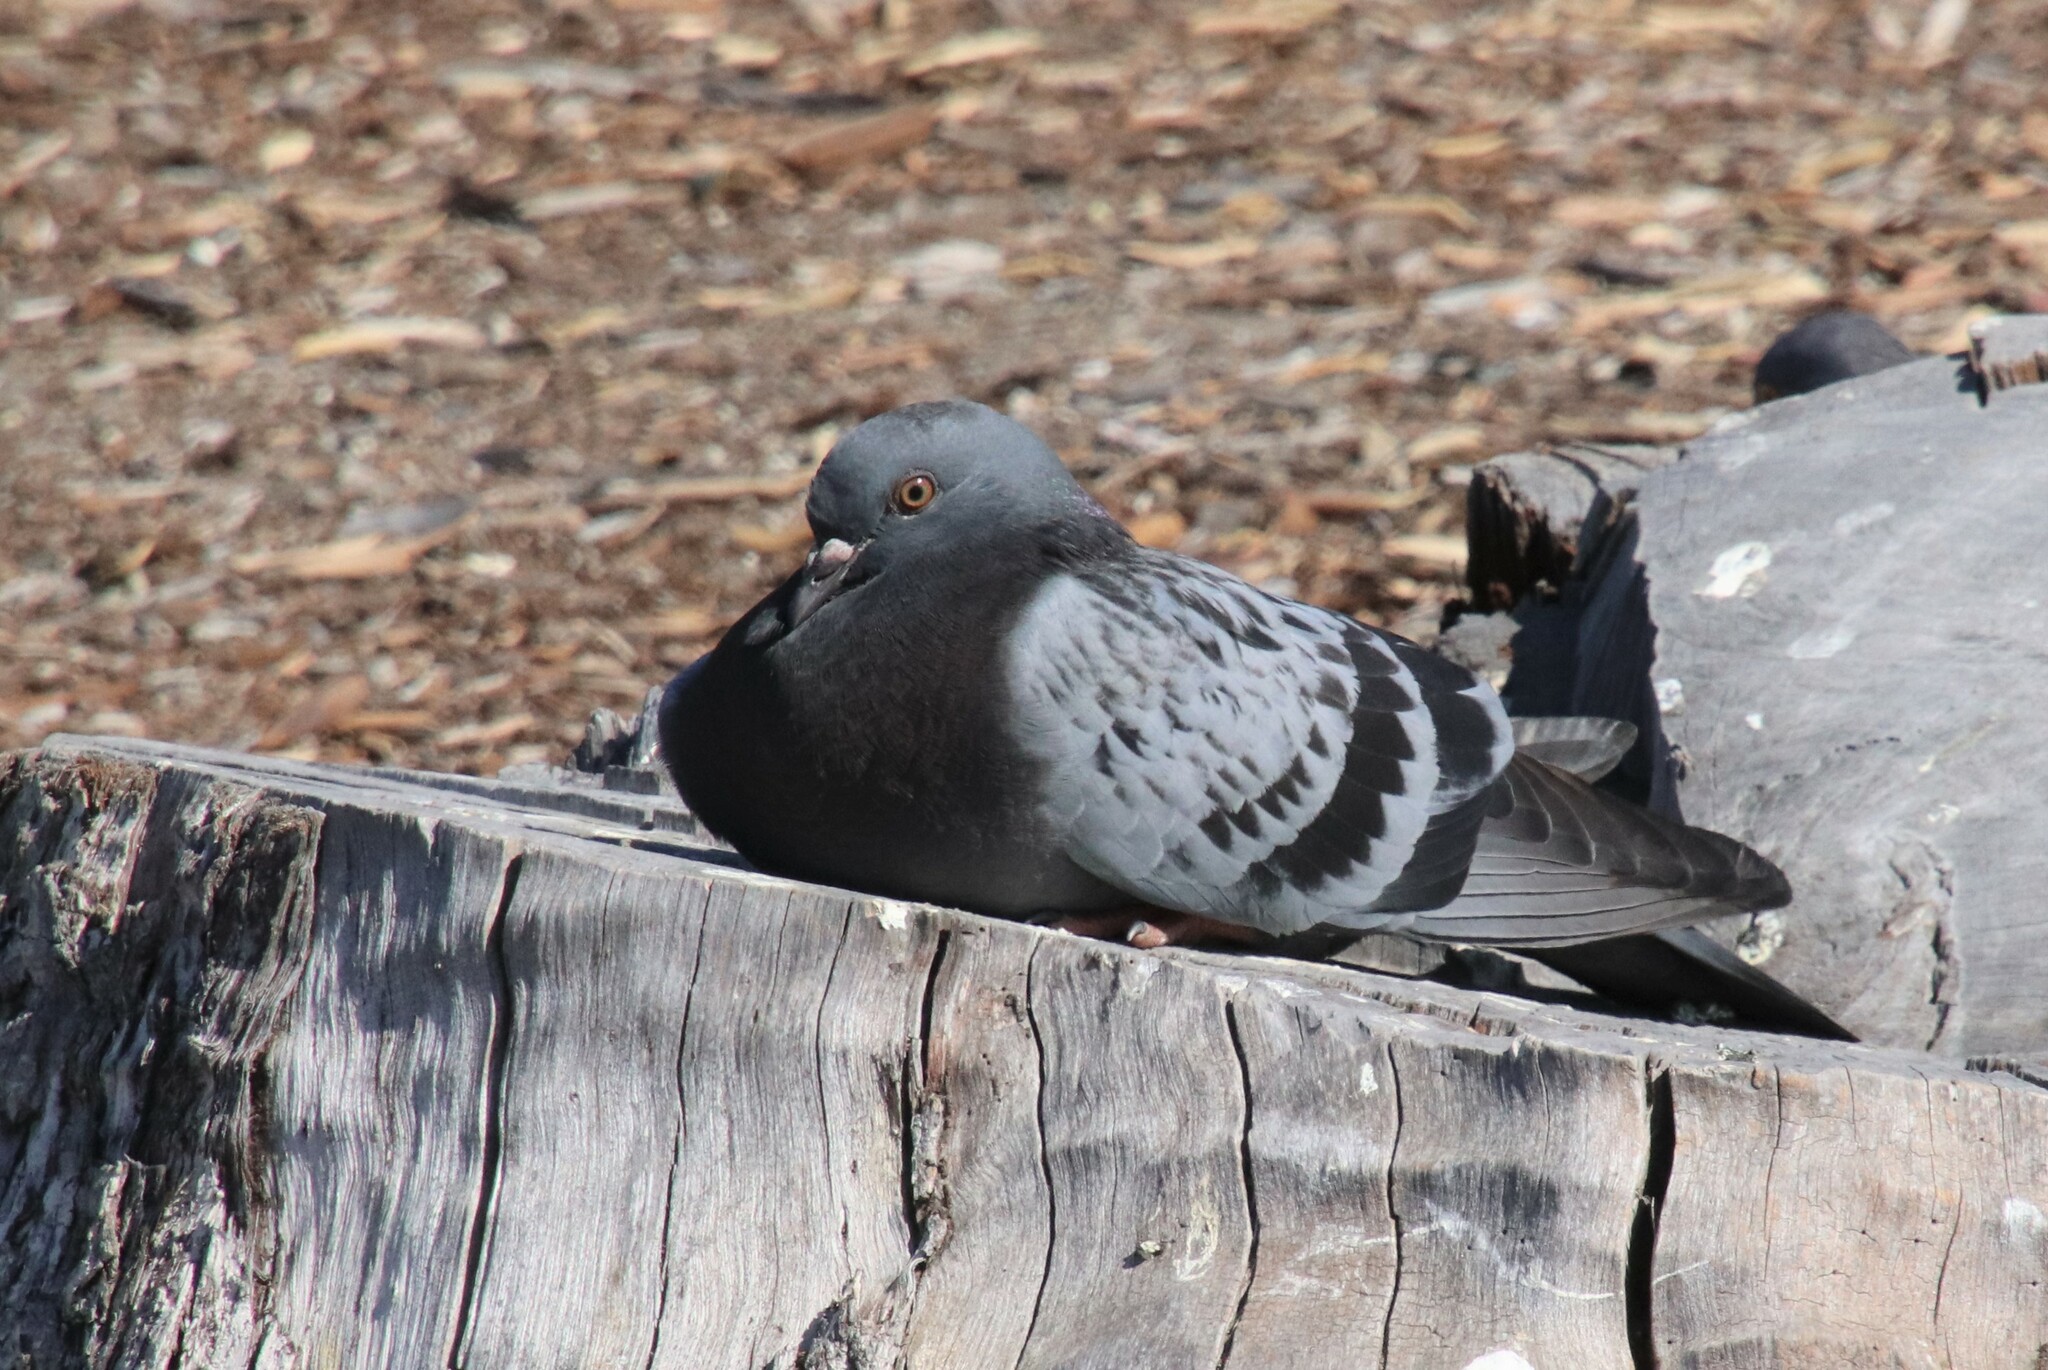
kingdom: Animalia
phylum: Chordata
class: Aves
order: Columbiformes
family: Columbidae
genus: Columba
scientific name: Columba livia
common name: Rock pigeon
